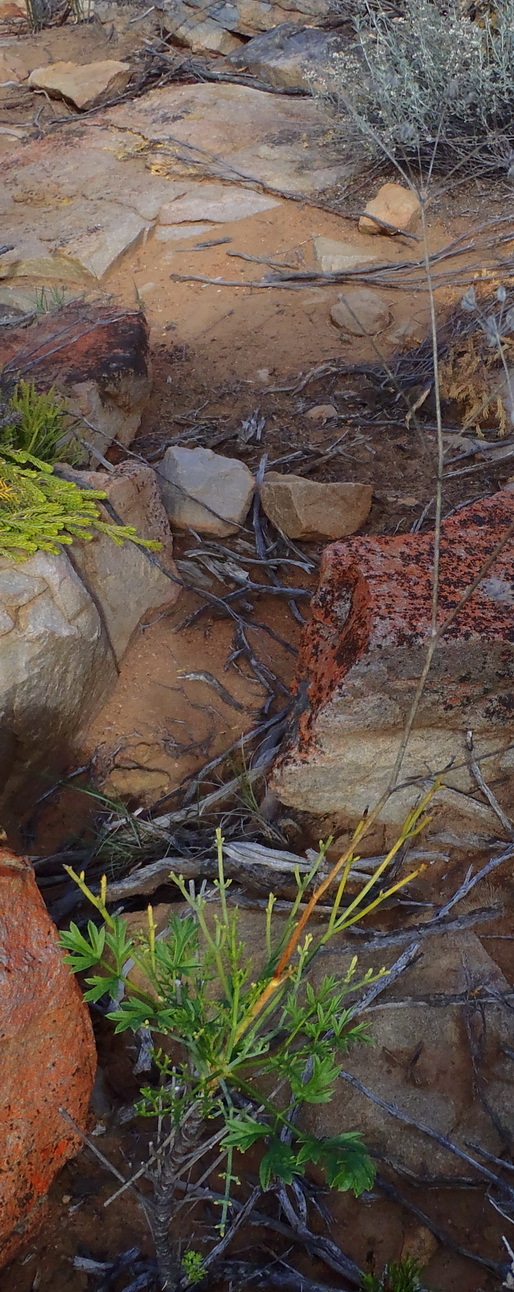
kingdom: Plantae
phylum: Tracheophyta
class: Magnoliopsida
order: Apiales
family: Apiaceae
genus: Anginon
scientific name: Anginon rugosum
